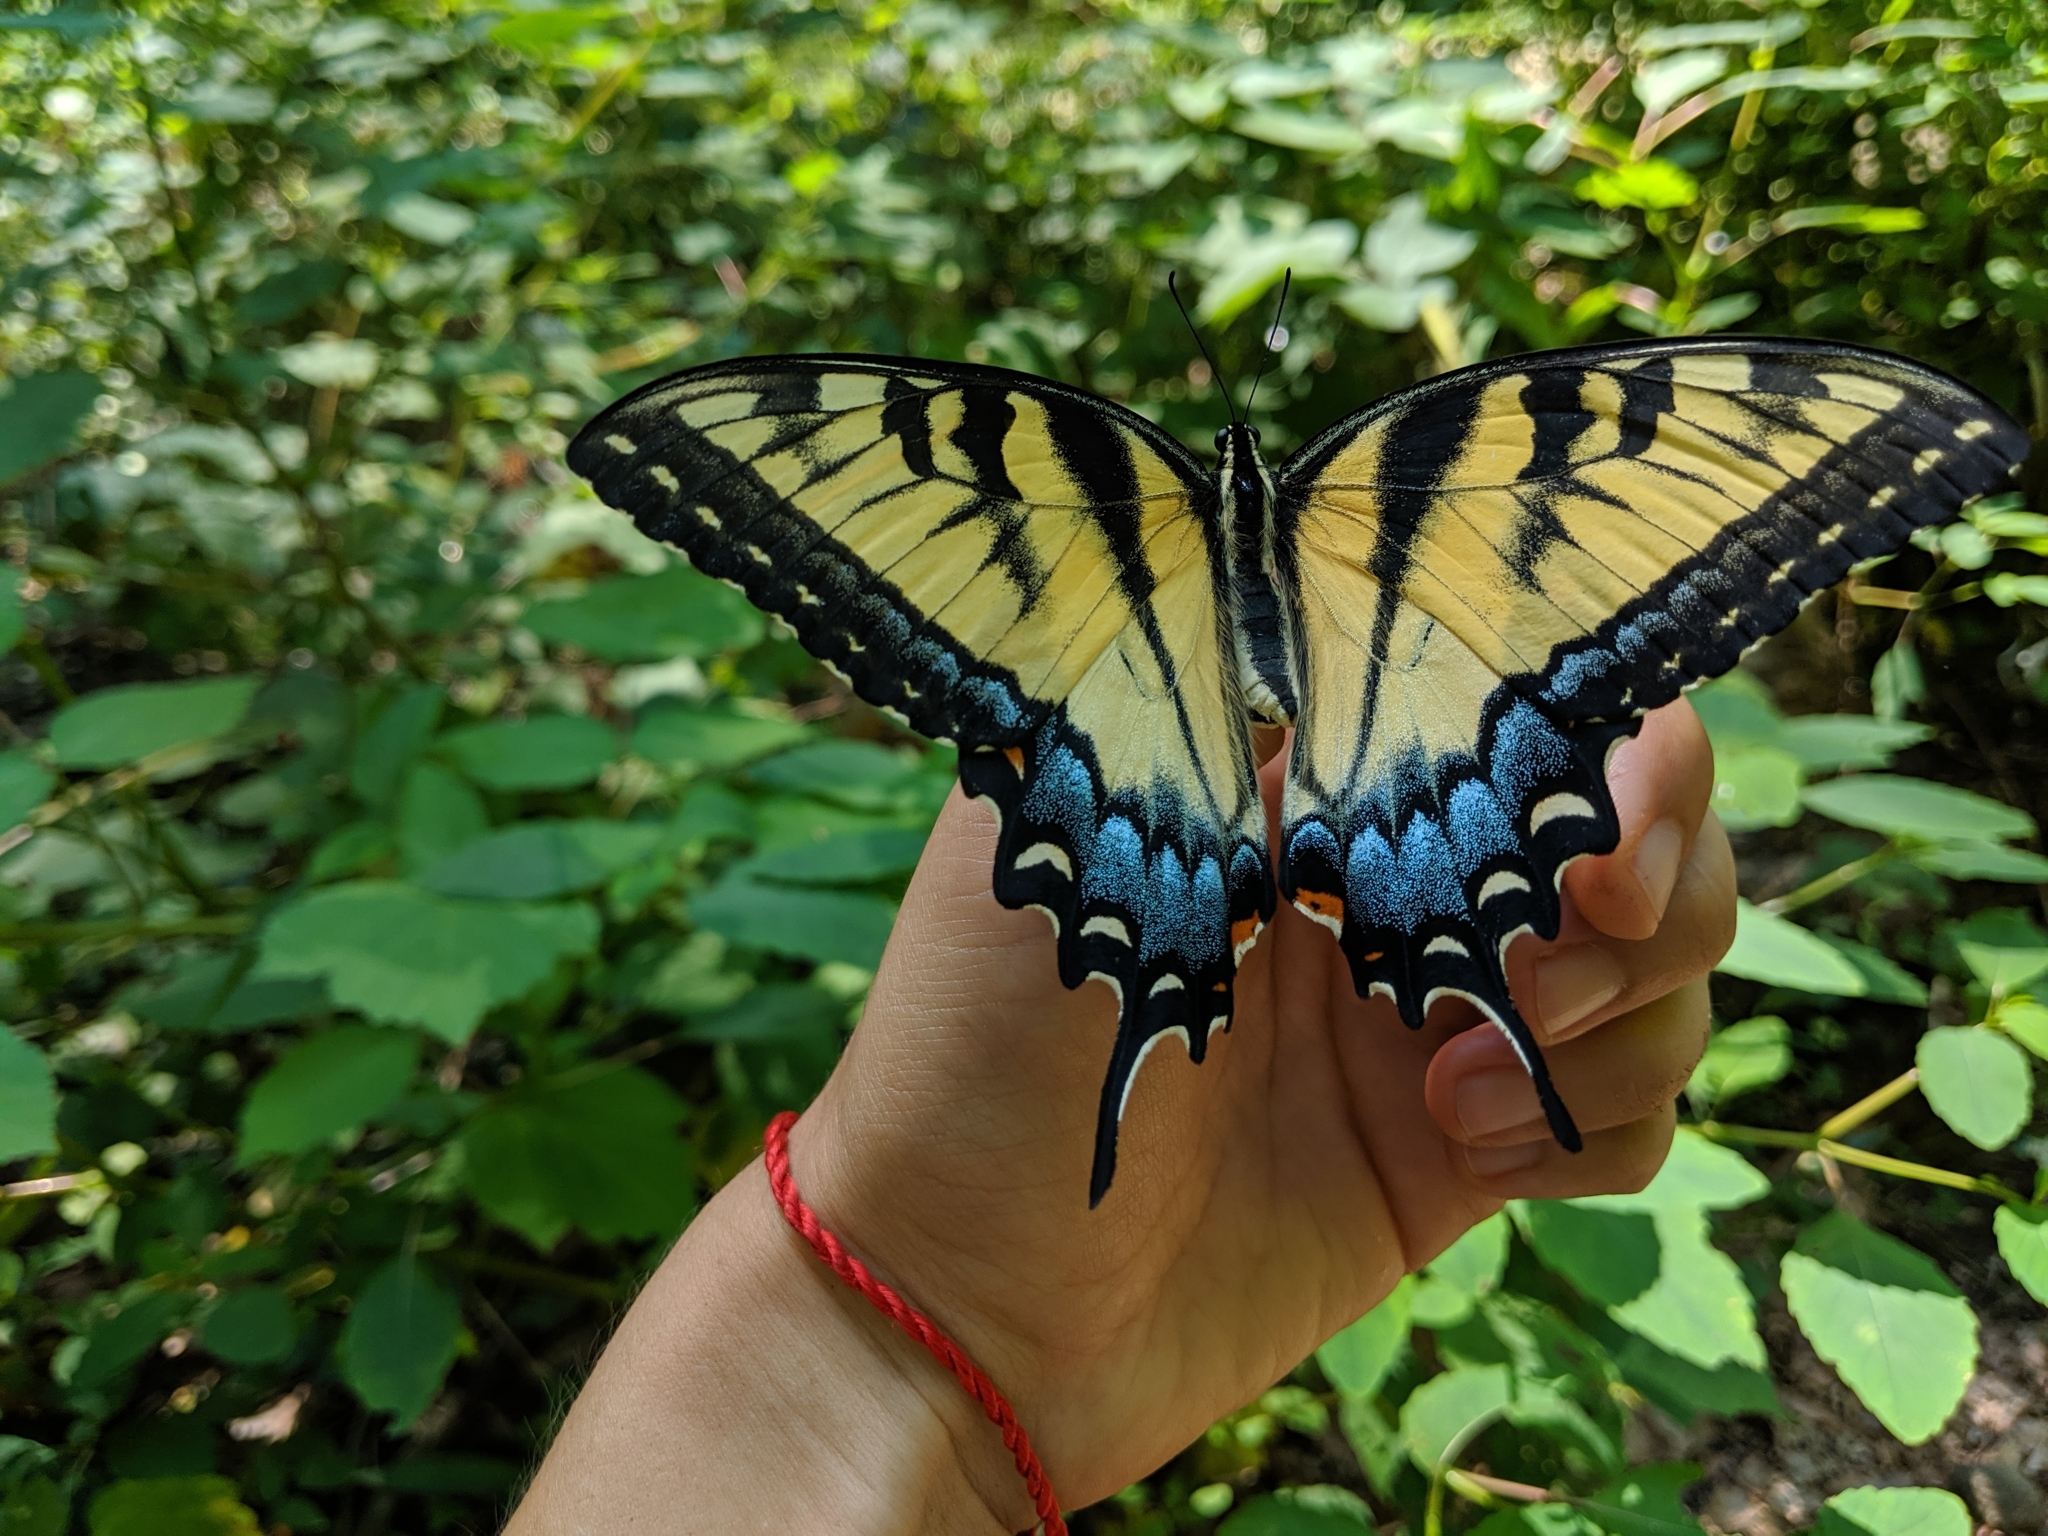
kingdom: Animalia
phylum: Arthropoda
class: Insecta
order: Lepidoptera
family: Papilionidae
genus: Papilio
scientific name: Papilio glaucus
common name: Tiger swallowtail
